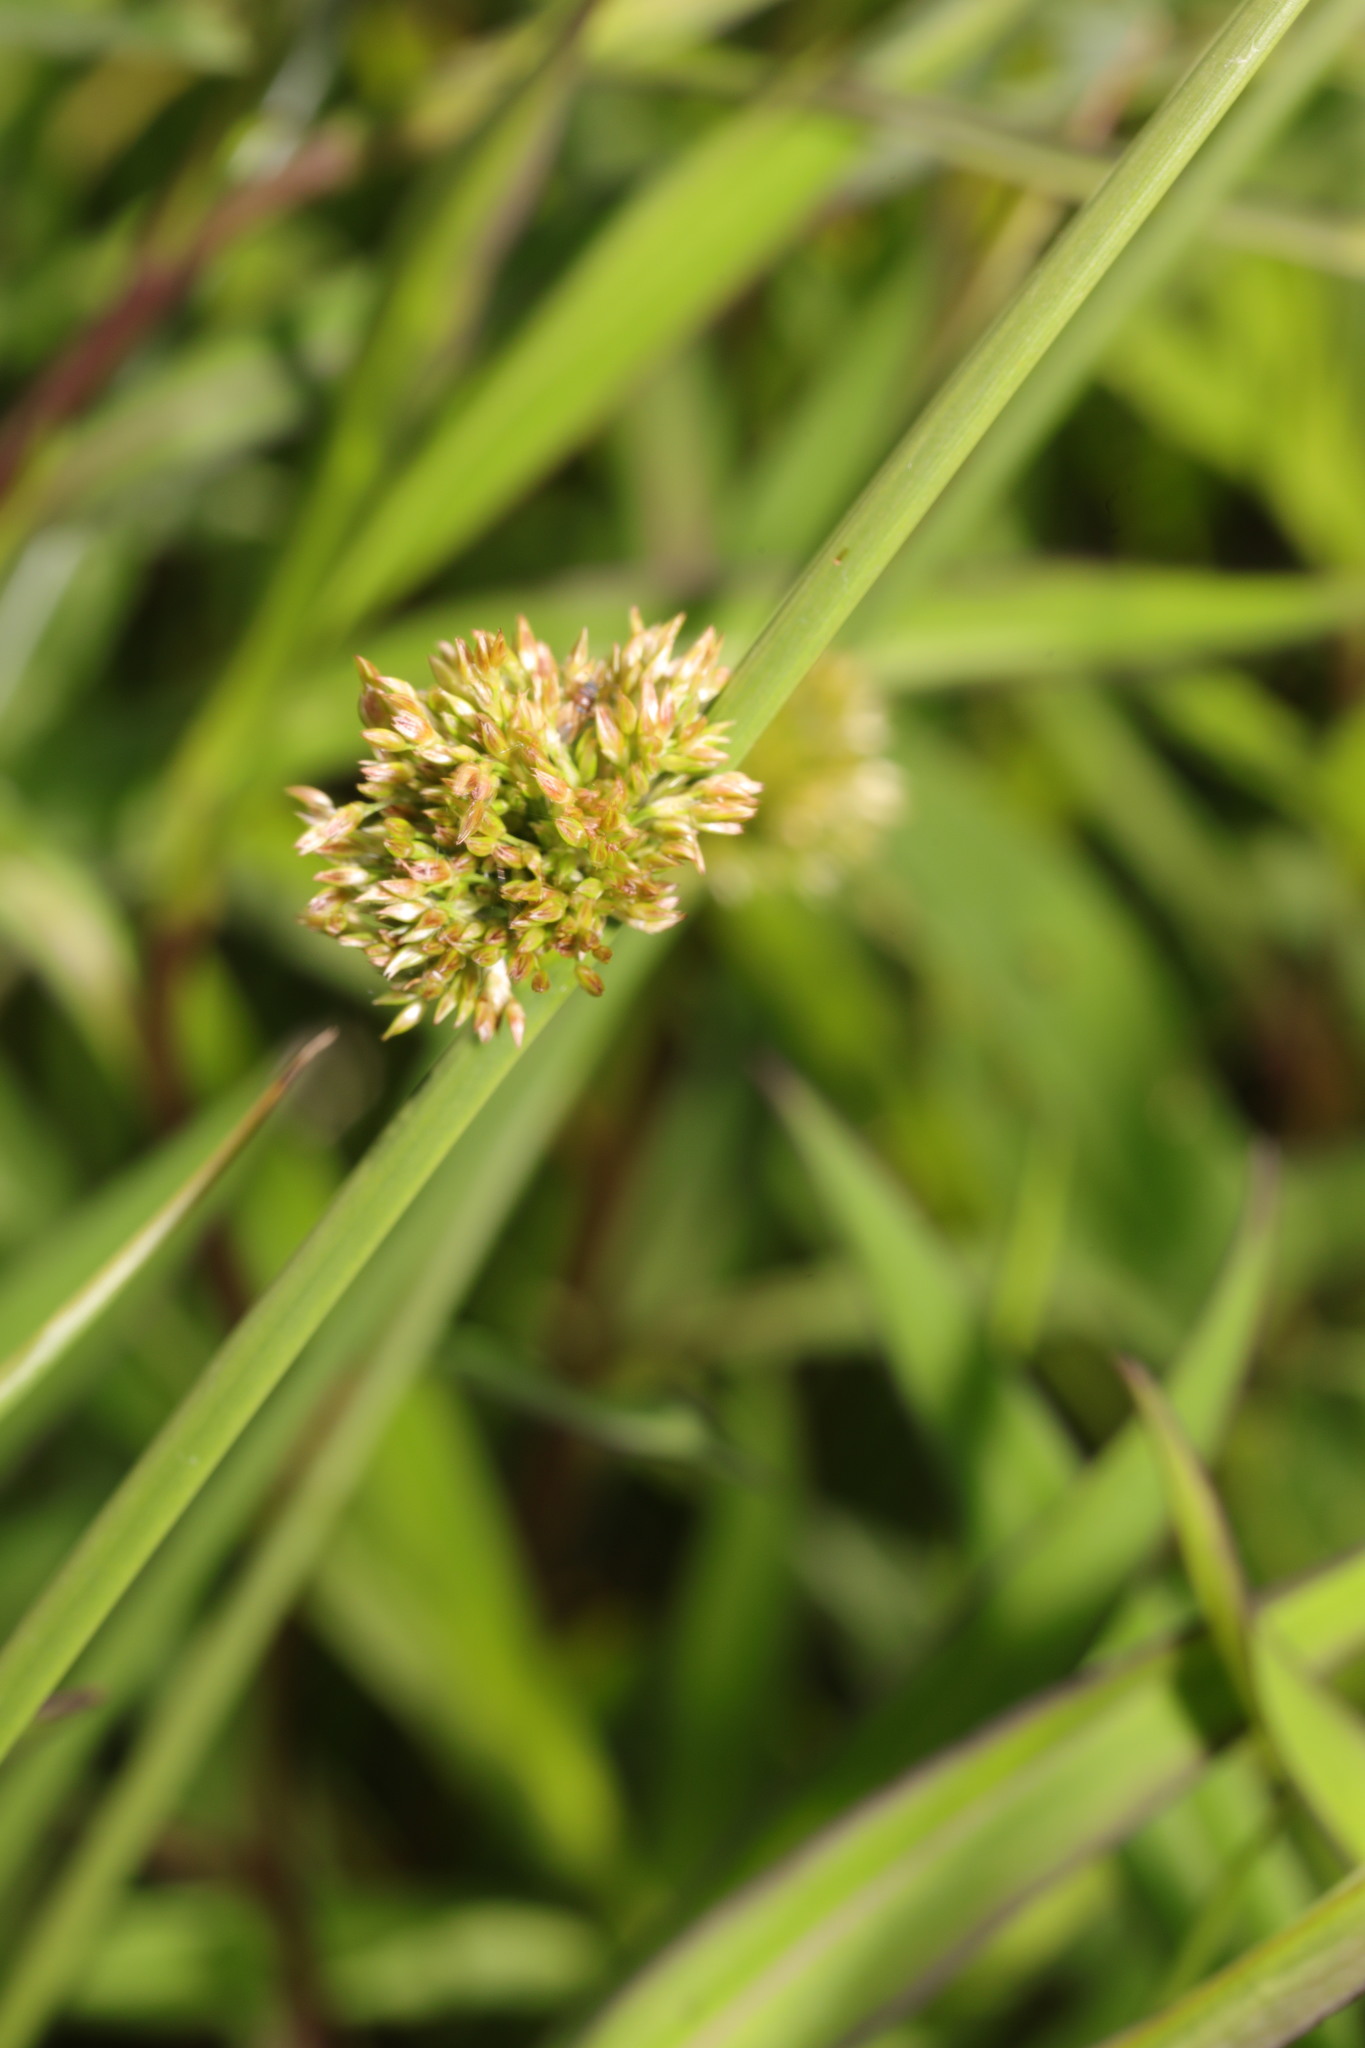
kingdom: Plantae
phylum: Tracheophyta
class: Liliopsida
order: Poales
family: Juncaceae
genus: Juncus
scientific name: Juncus effusus
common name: Soft rush
